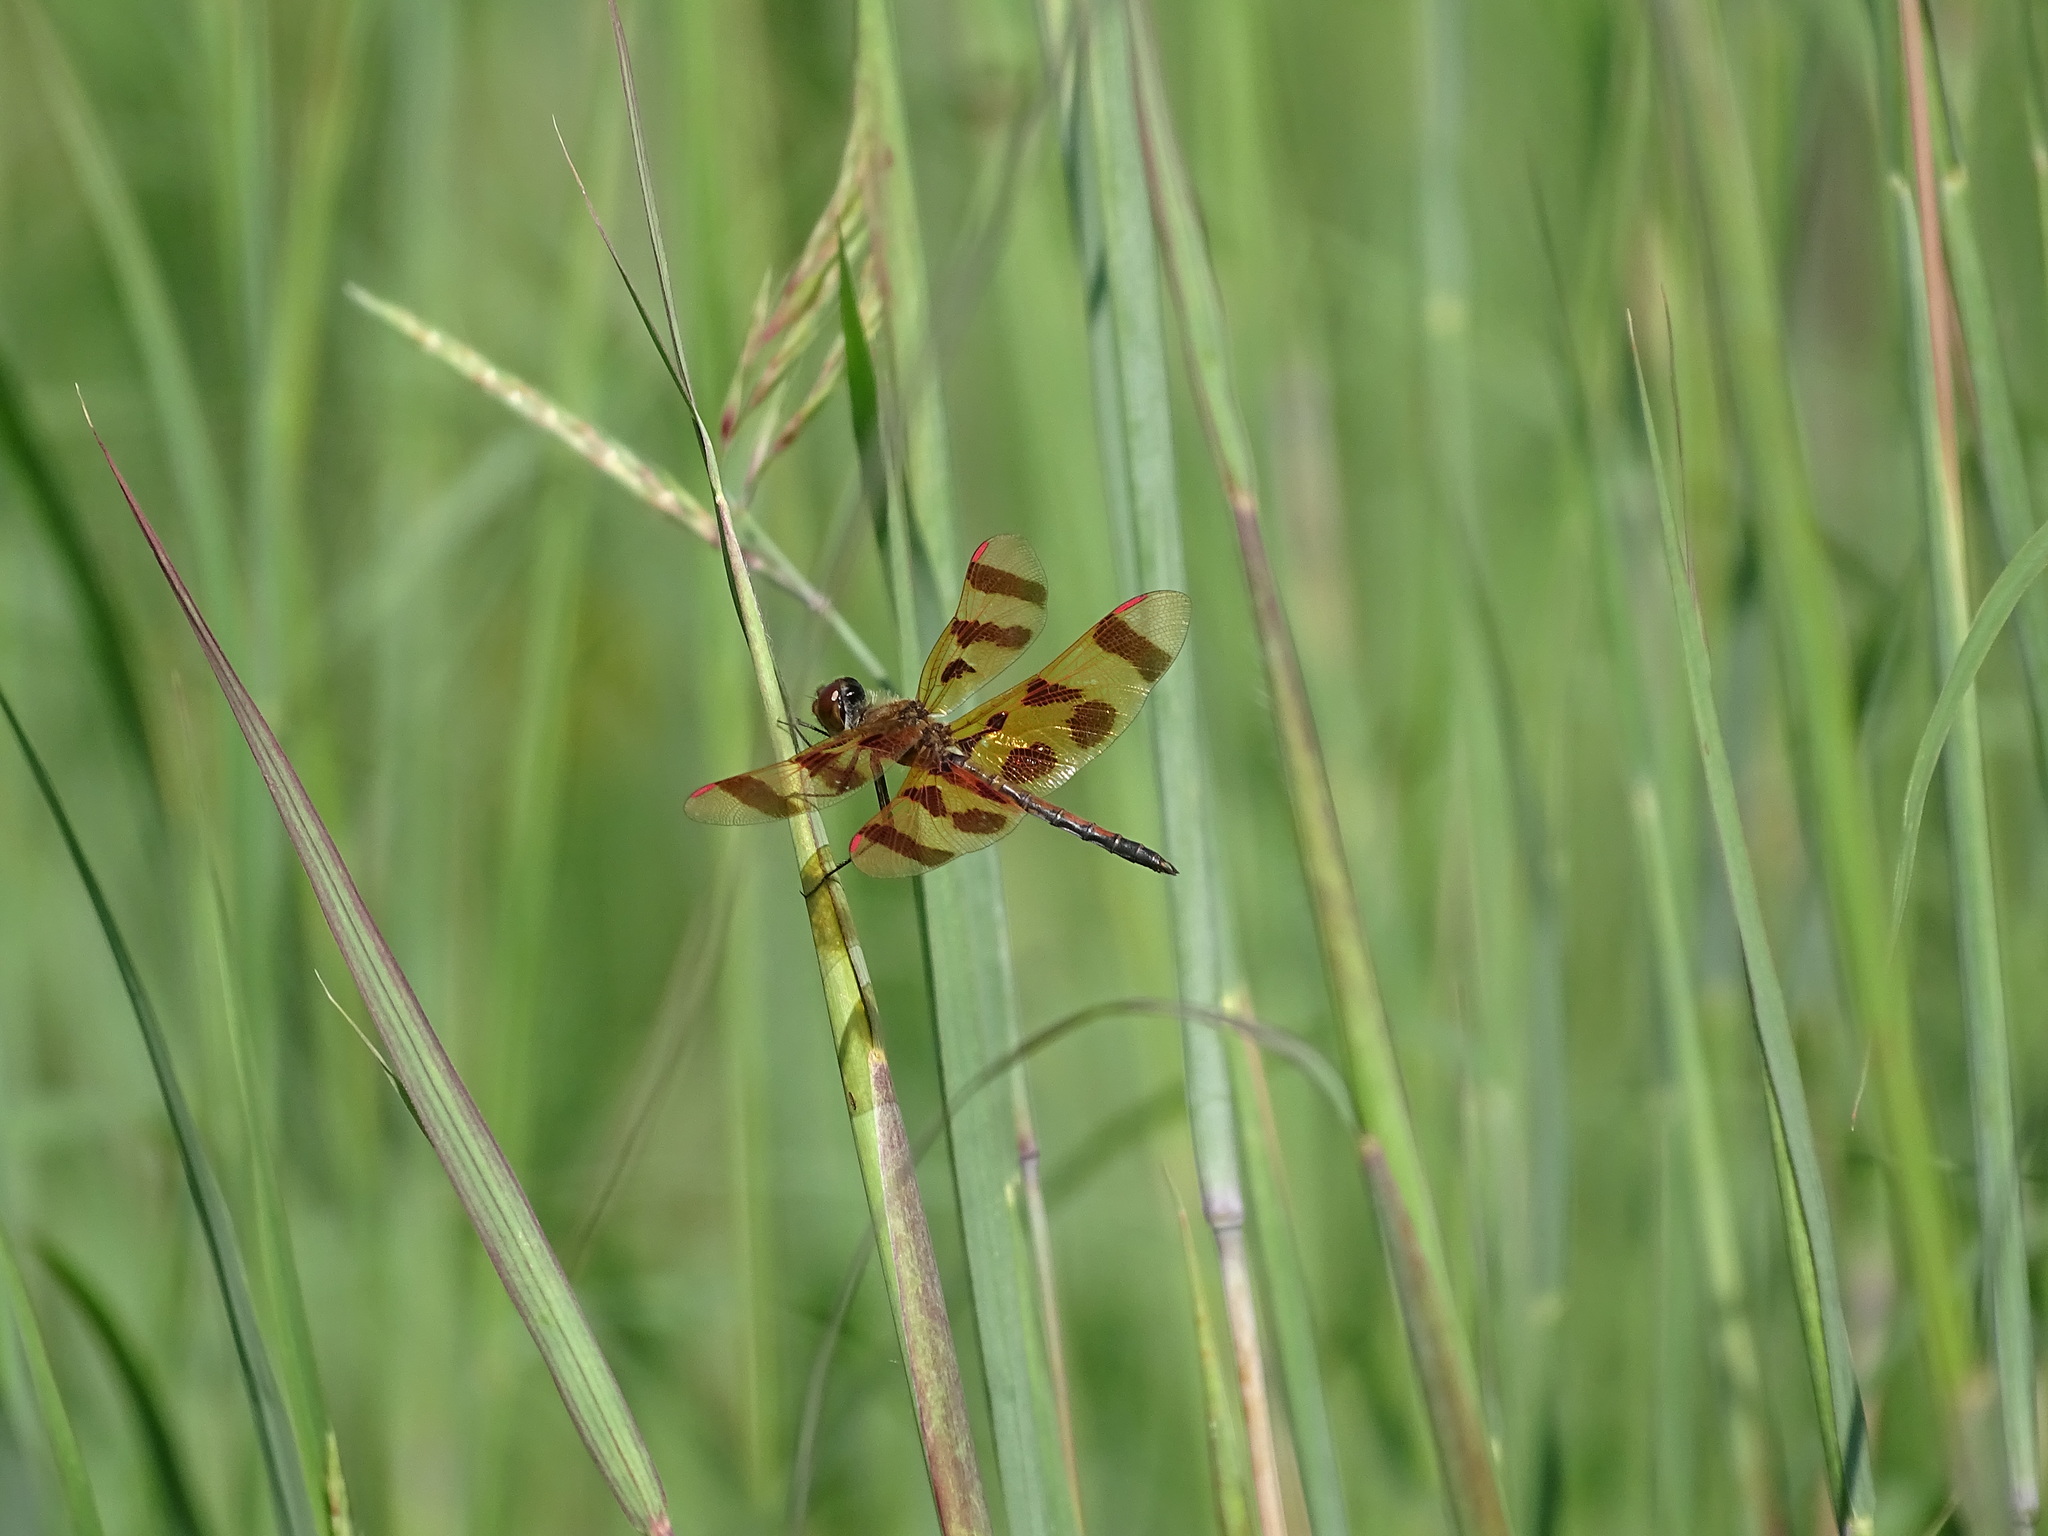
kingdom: Animalia
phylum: Arthropoda
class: Insecta
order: Odonata
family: Libellulidae
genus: Celithemis
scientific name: Celithemis eponina
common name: Halloween pennant
